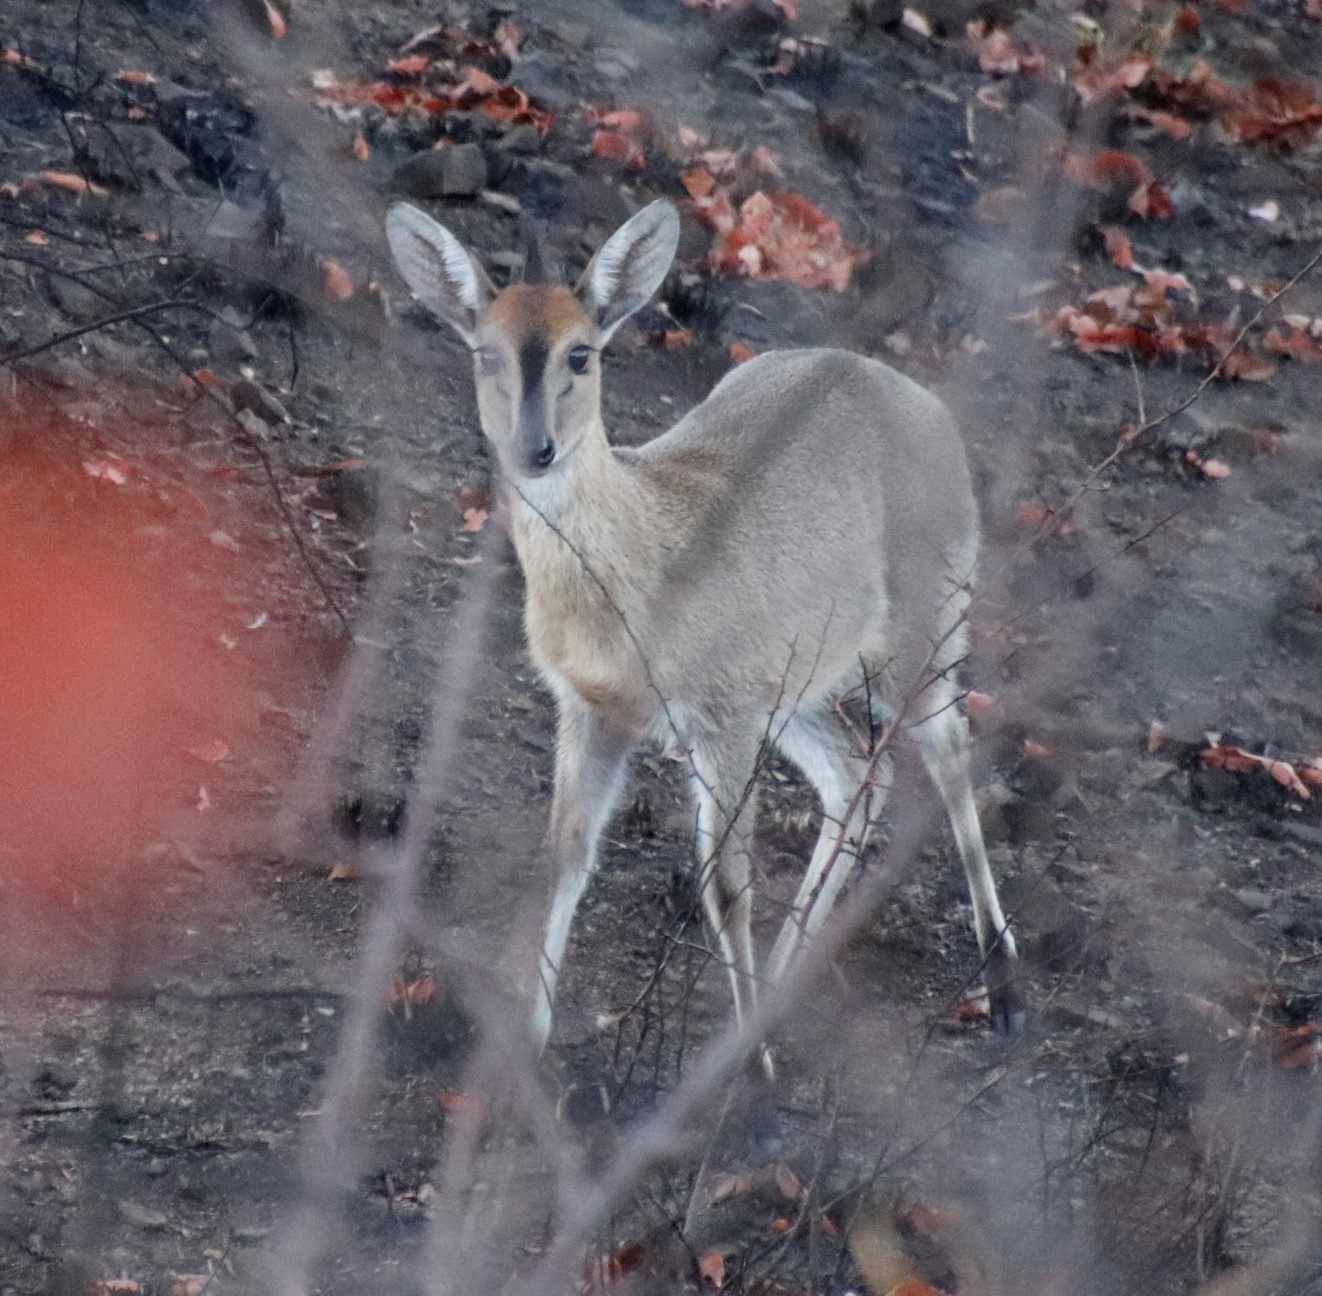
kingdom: Animalia
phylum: Chordata
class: Mammalia
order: Artiodactyla
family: Bovidae
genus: Sylvicapra
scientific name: Sylvicapra grimmia
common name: Bush duiker
